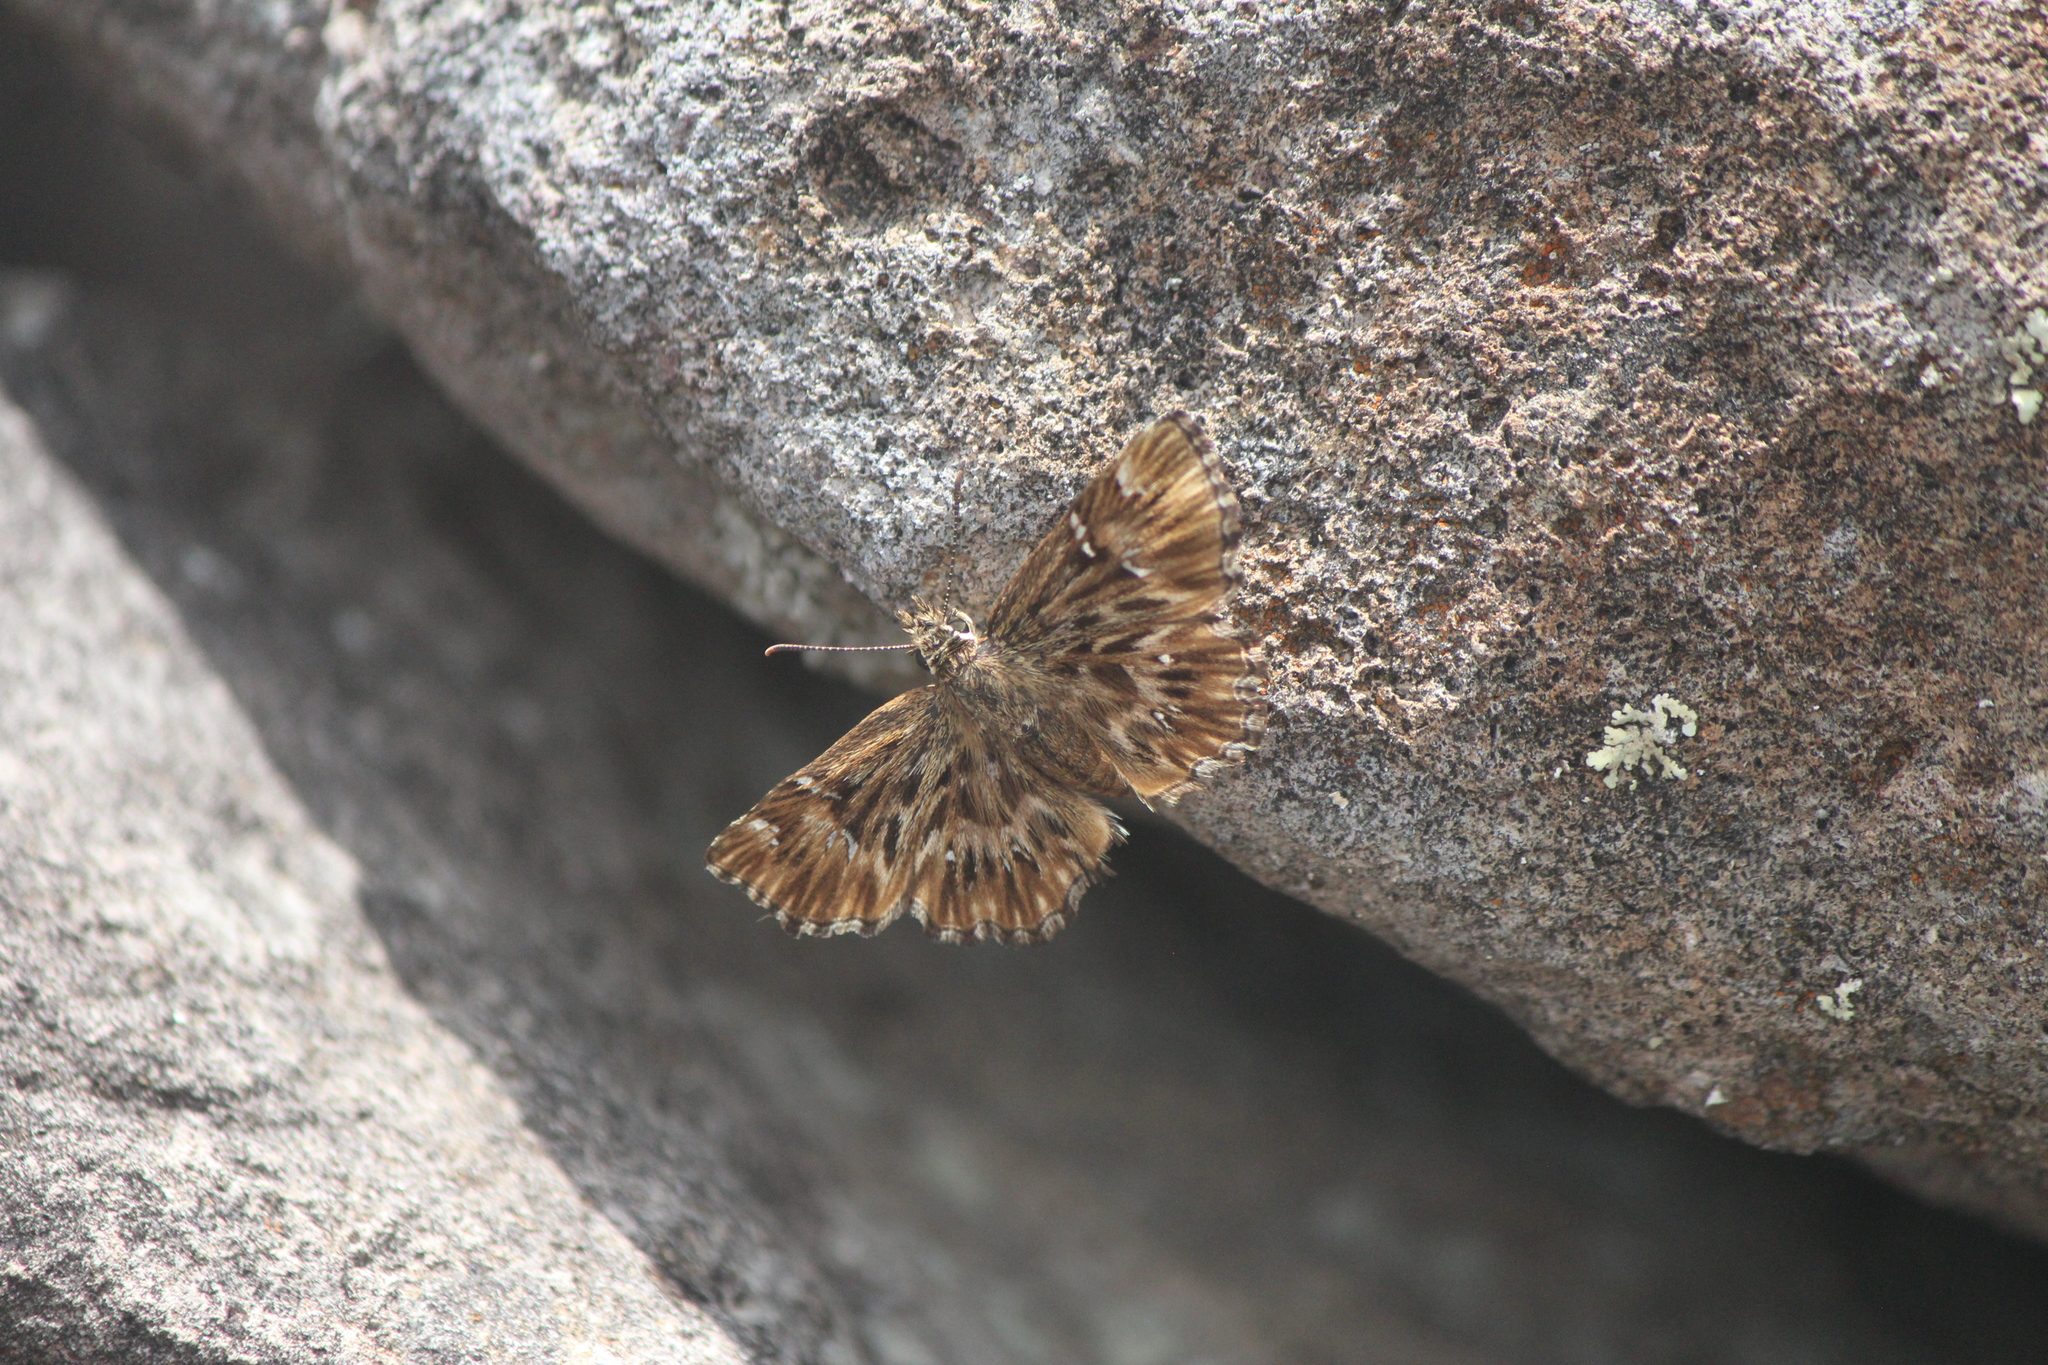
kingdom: Animalia
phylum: Arthropoda
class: Insecta
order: Lepidoptera
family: Hesperiidae
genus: Celotes
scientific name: Celotes spurcus
